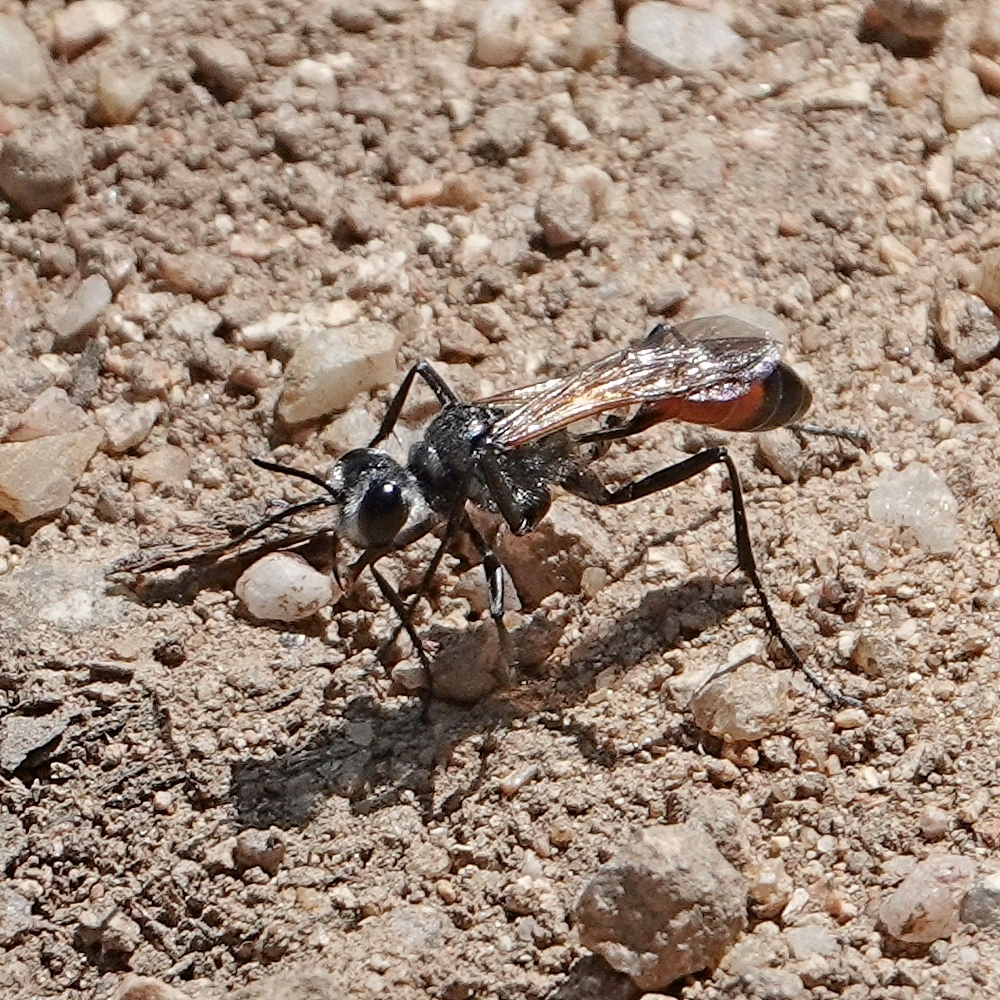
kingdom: Animalia
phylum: Arthropoda
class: Insecta
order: Hymenoptera
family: Sphecidae
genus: Podalonia
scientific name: Podalonia tydei
